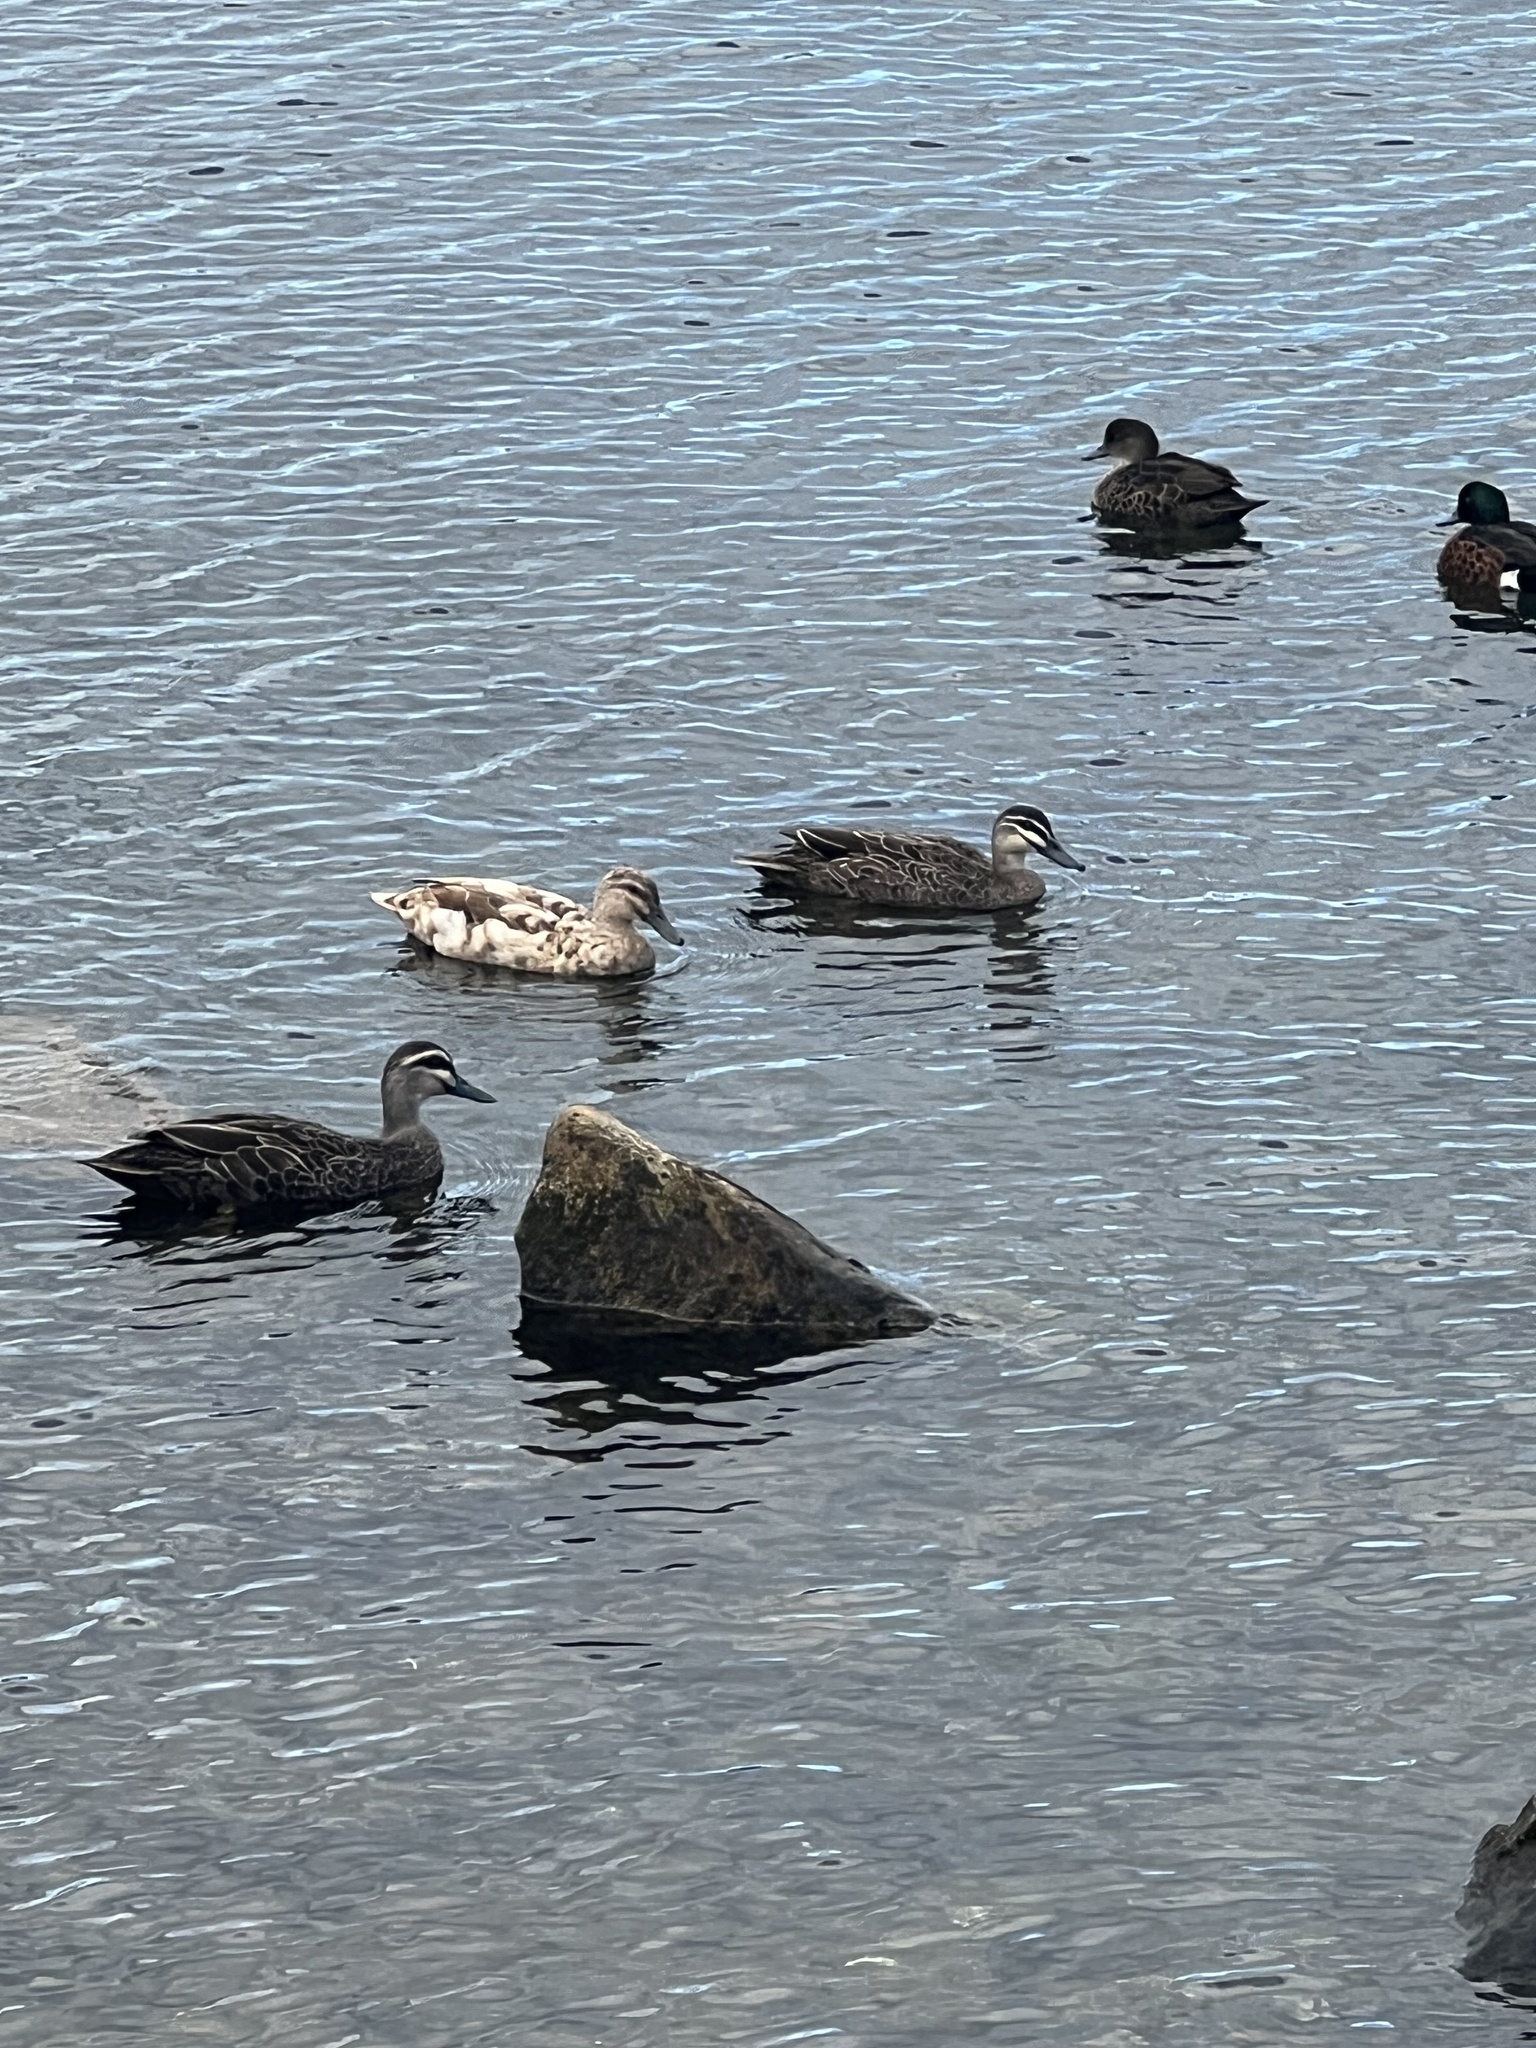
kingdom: Animalia
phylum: Chordata
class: Aves
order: Anseriformes
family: Anatidae
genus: Anas
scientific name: Anas
